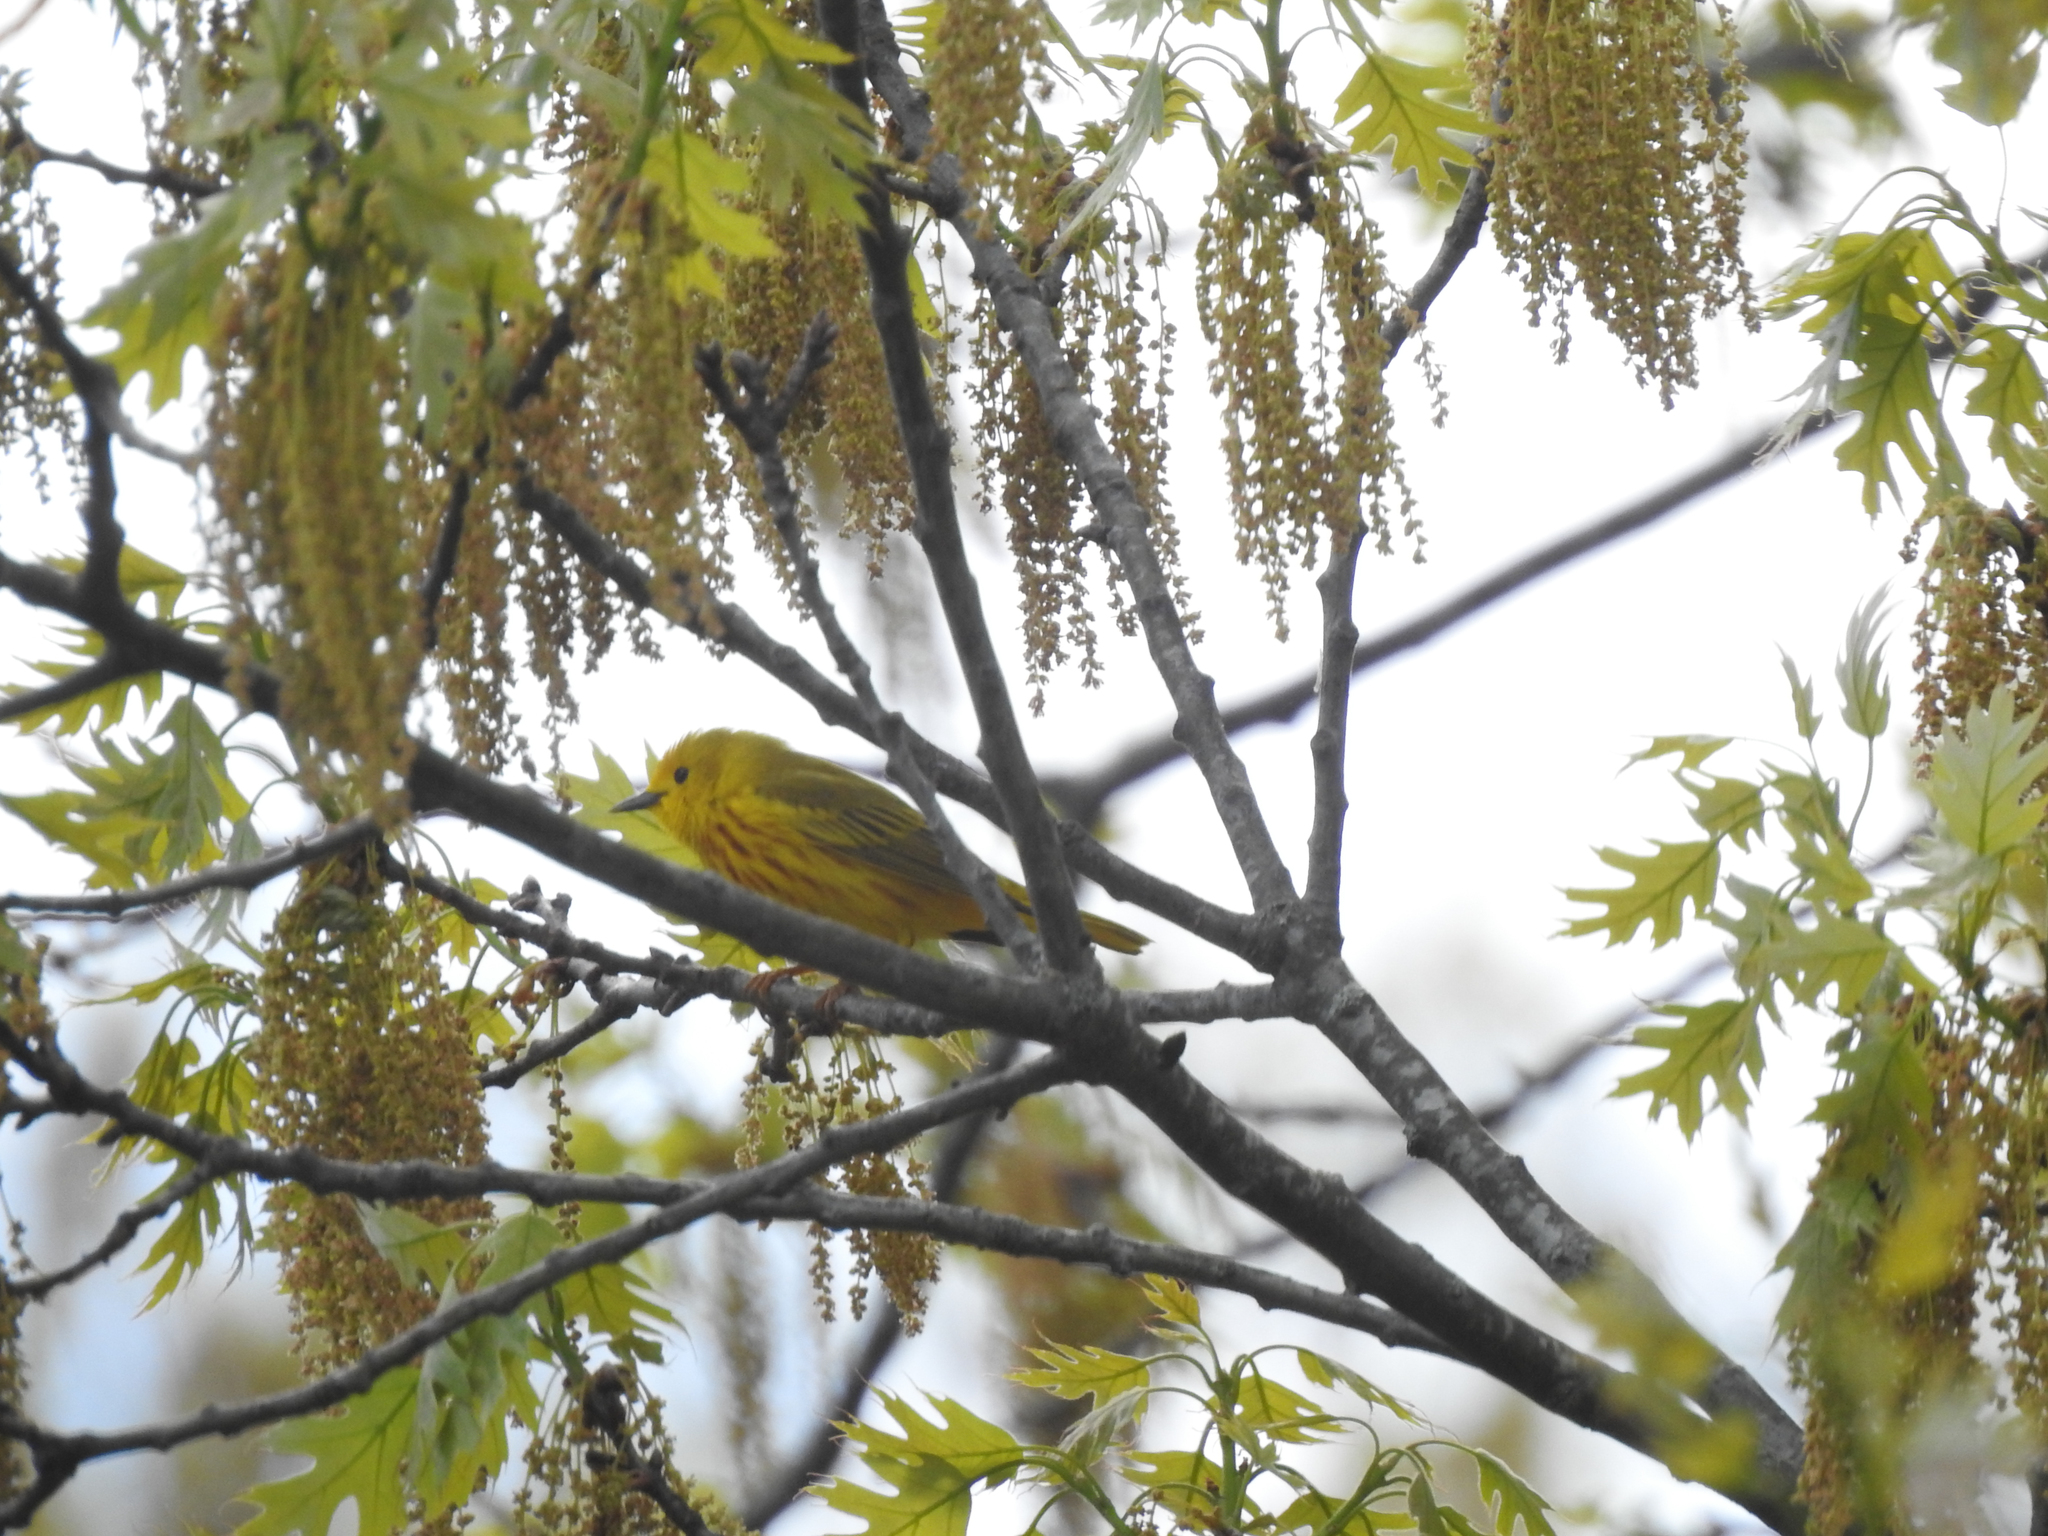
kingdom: Animalia
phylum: Chordata
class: Aves
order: Passeriformes
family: Parulidae
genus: Setophaga
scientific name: Setophaga petechia
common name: Yellow warbler
